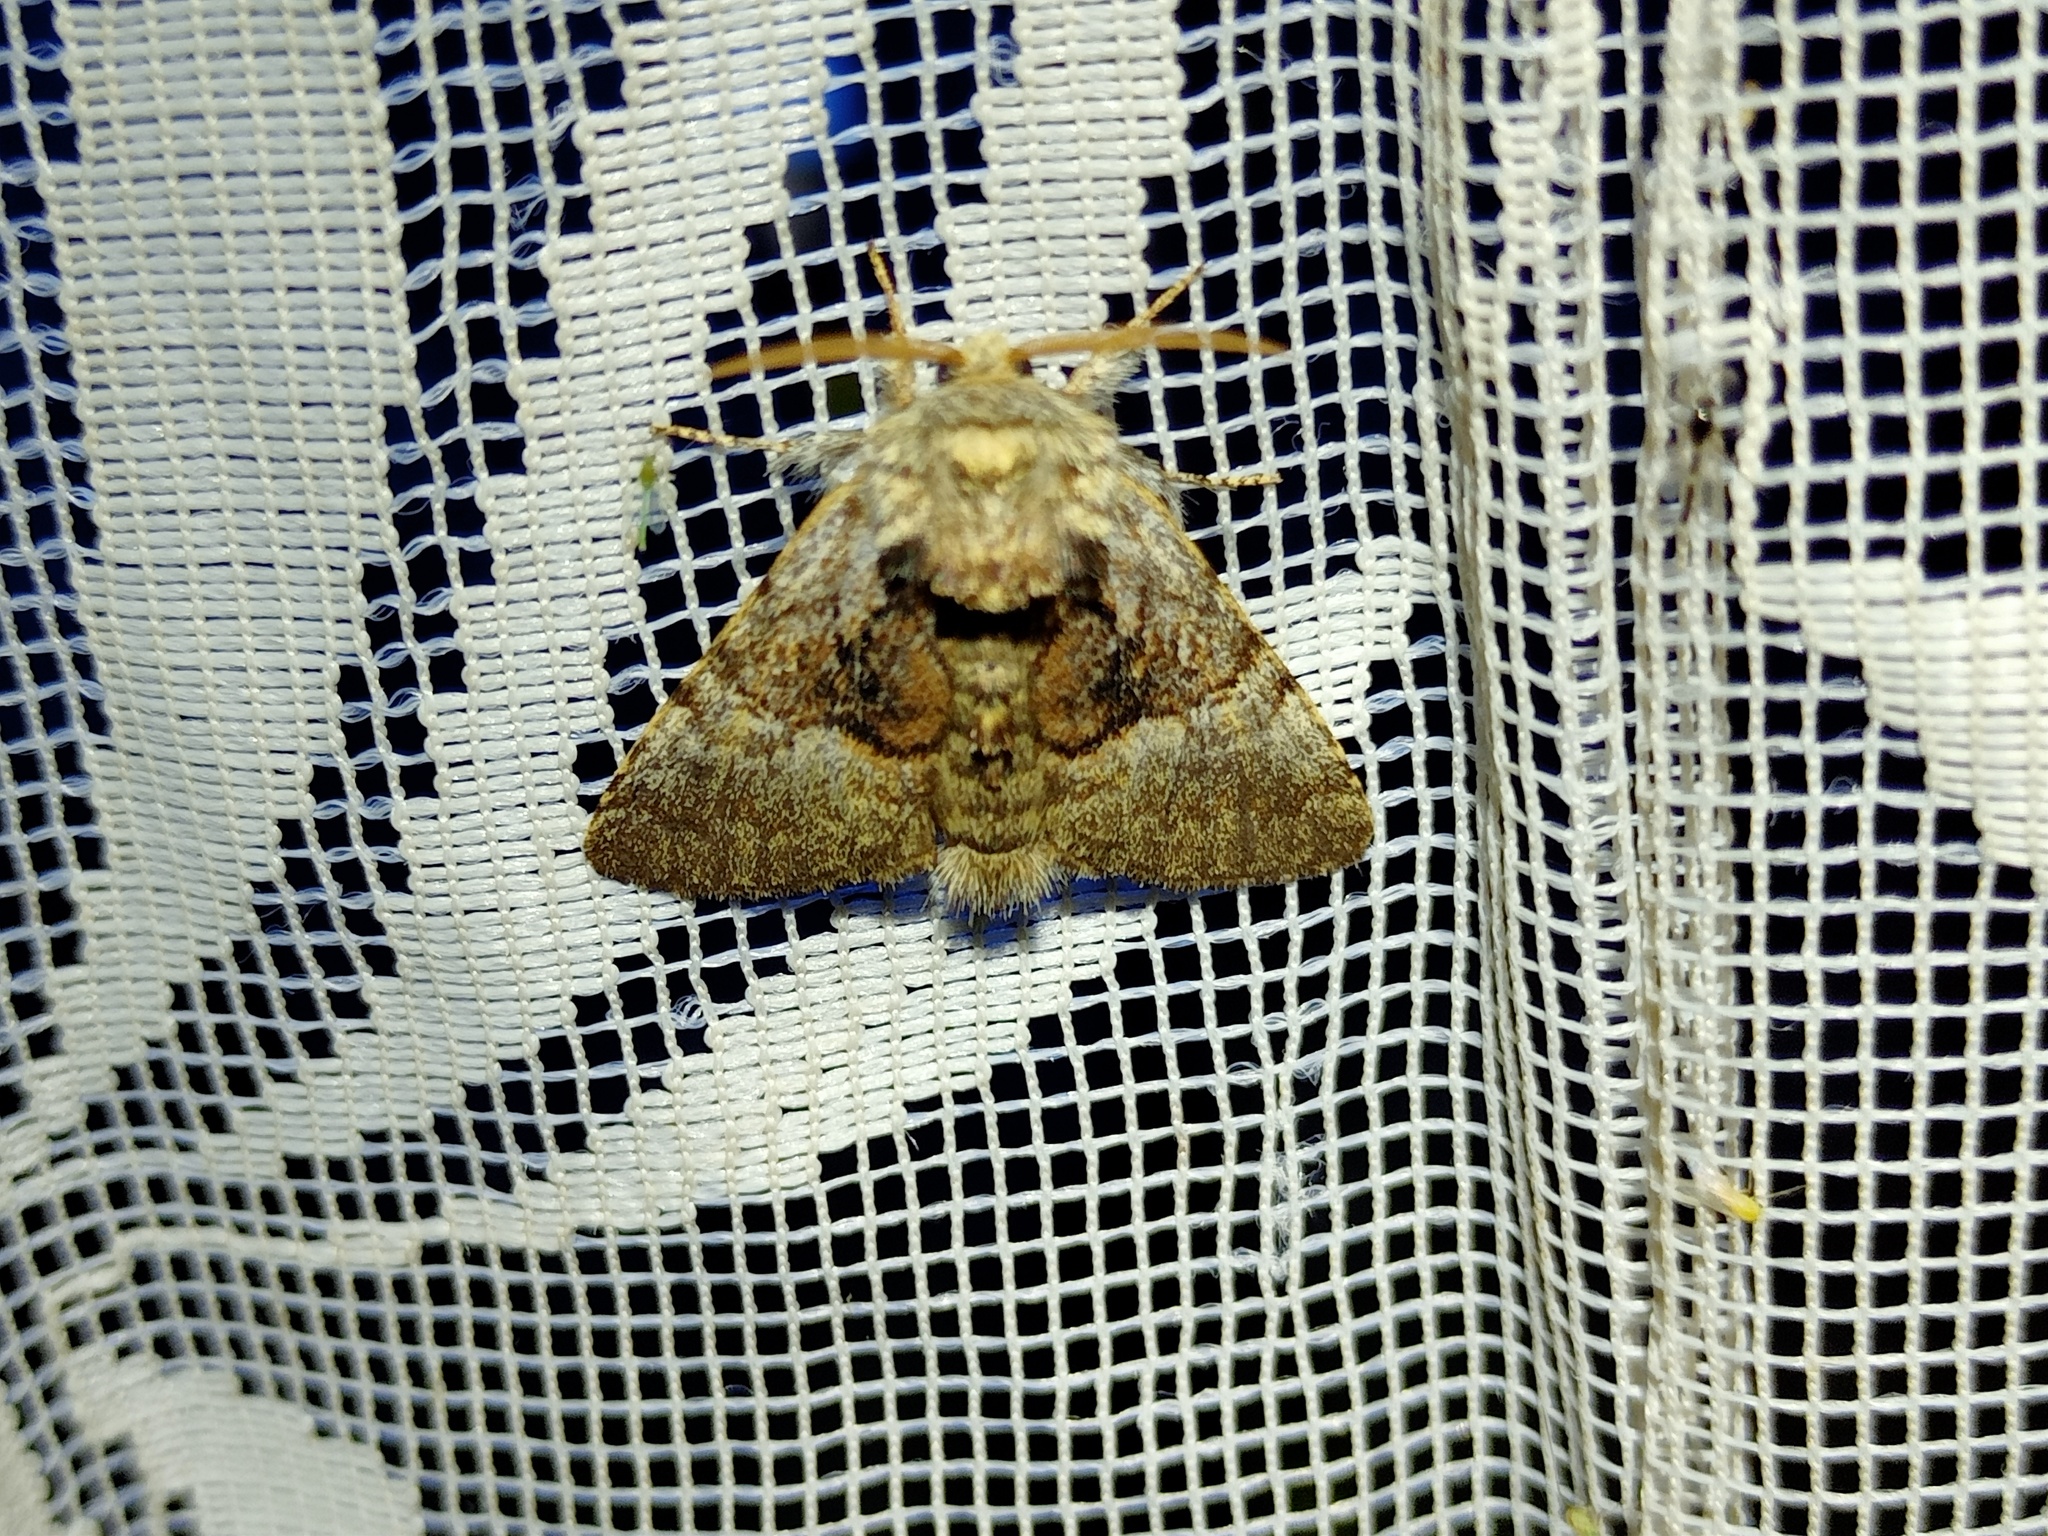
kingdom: Animalia
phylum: Arthropoda
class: Insecta
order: Lepidoptera
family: Noctuidae
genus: Colocasia
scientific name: Colocasia coryli
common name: Nut-tree tussock
